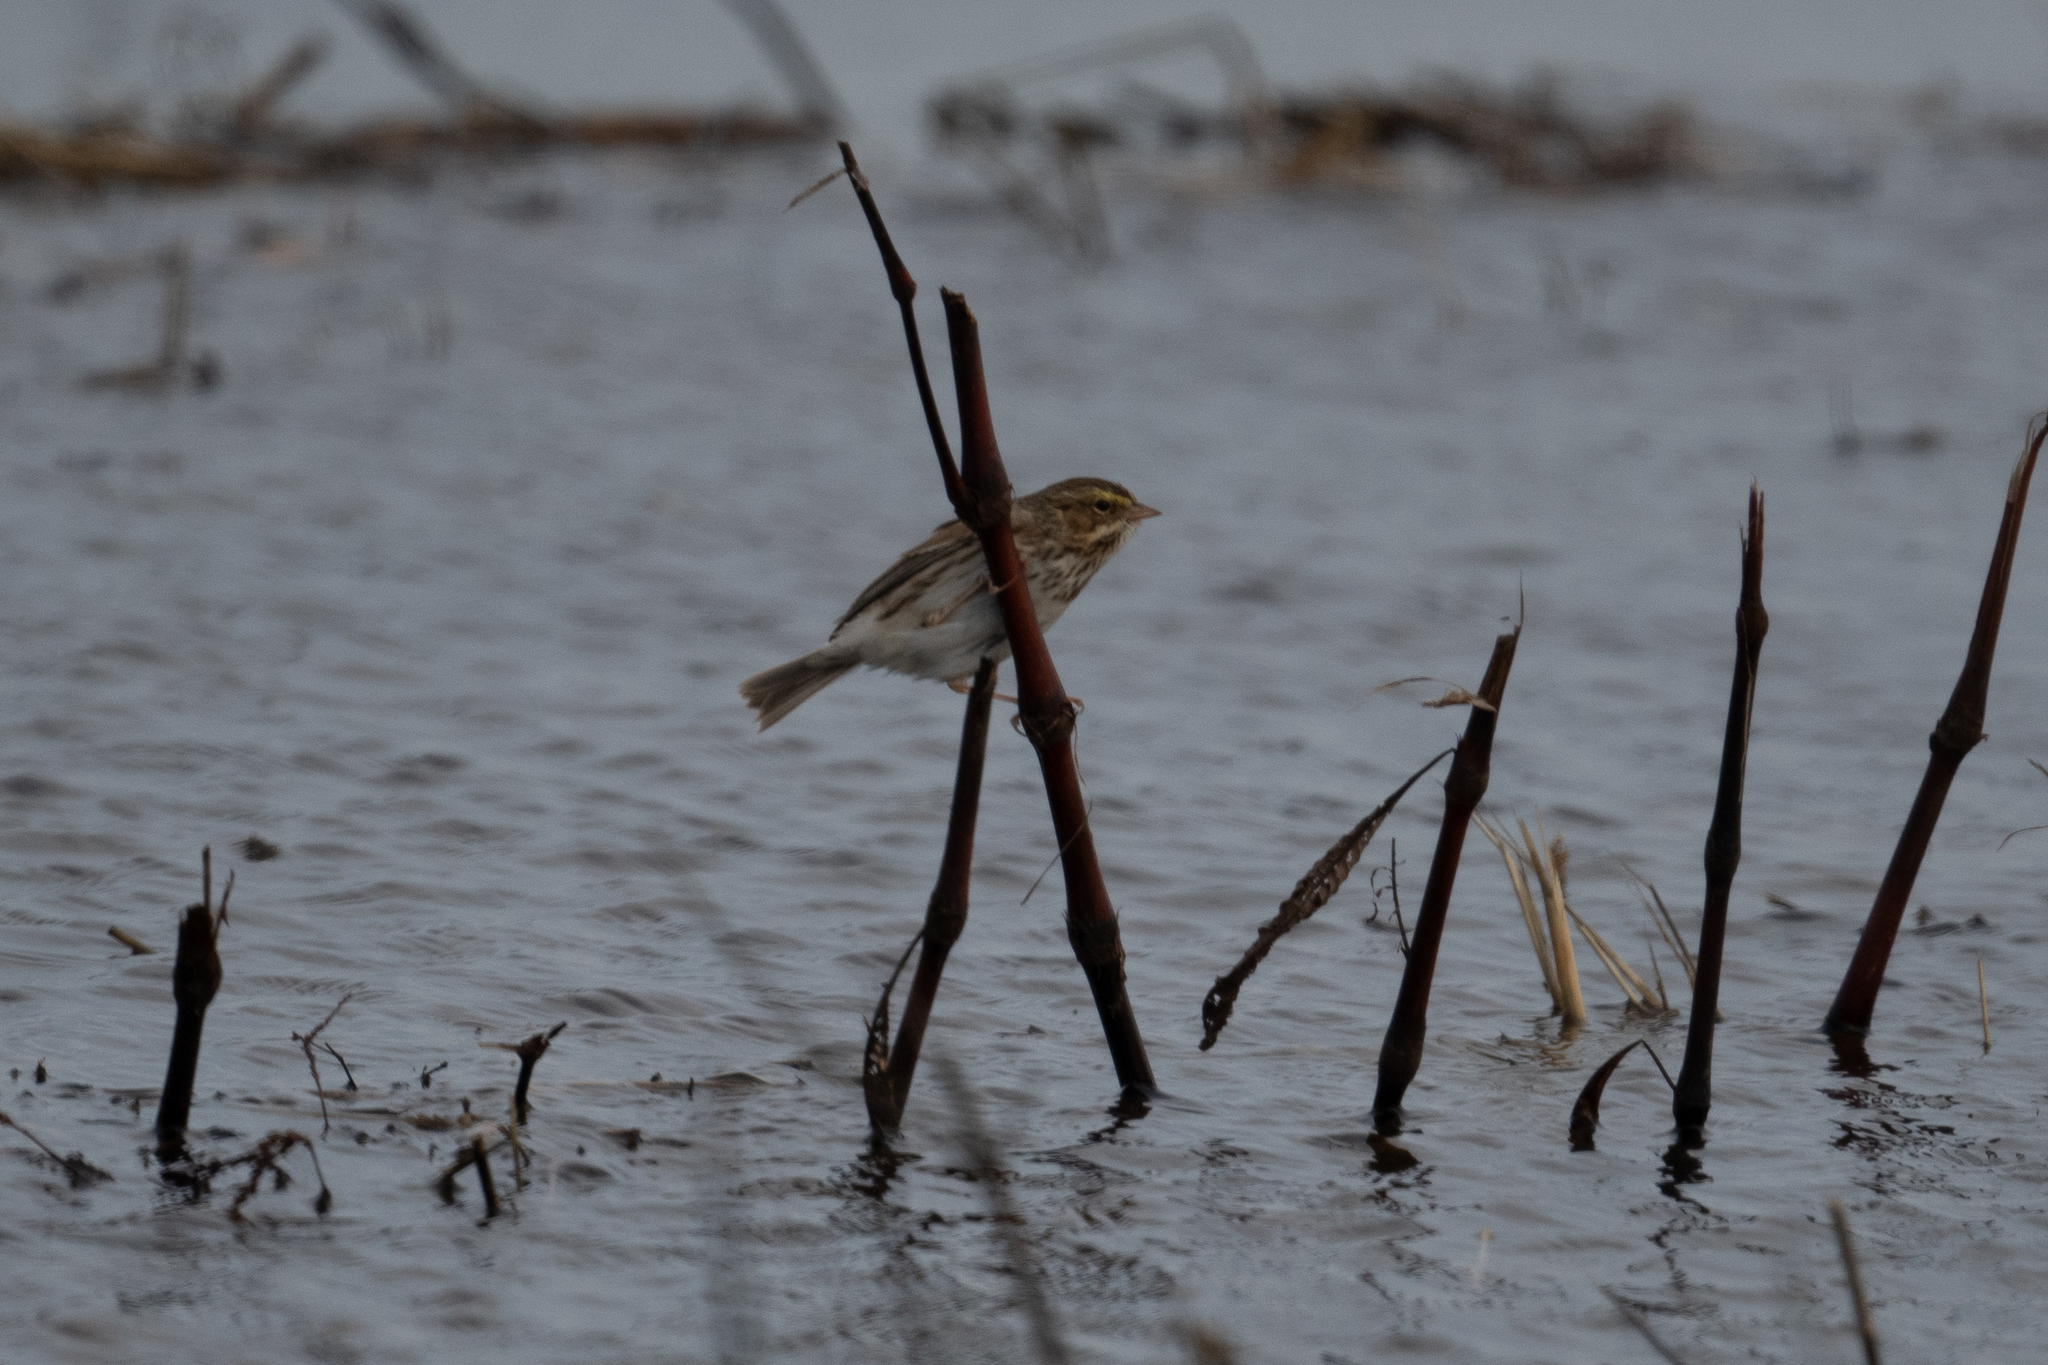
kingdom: Animalia
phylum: Chordata
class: Aves
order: Passeriformes
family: Passerellidae
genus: Passerculus
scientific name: Passerculus sandwichensis
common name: Savannah sparrow
